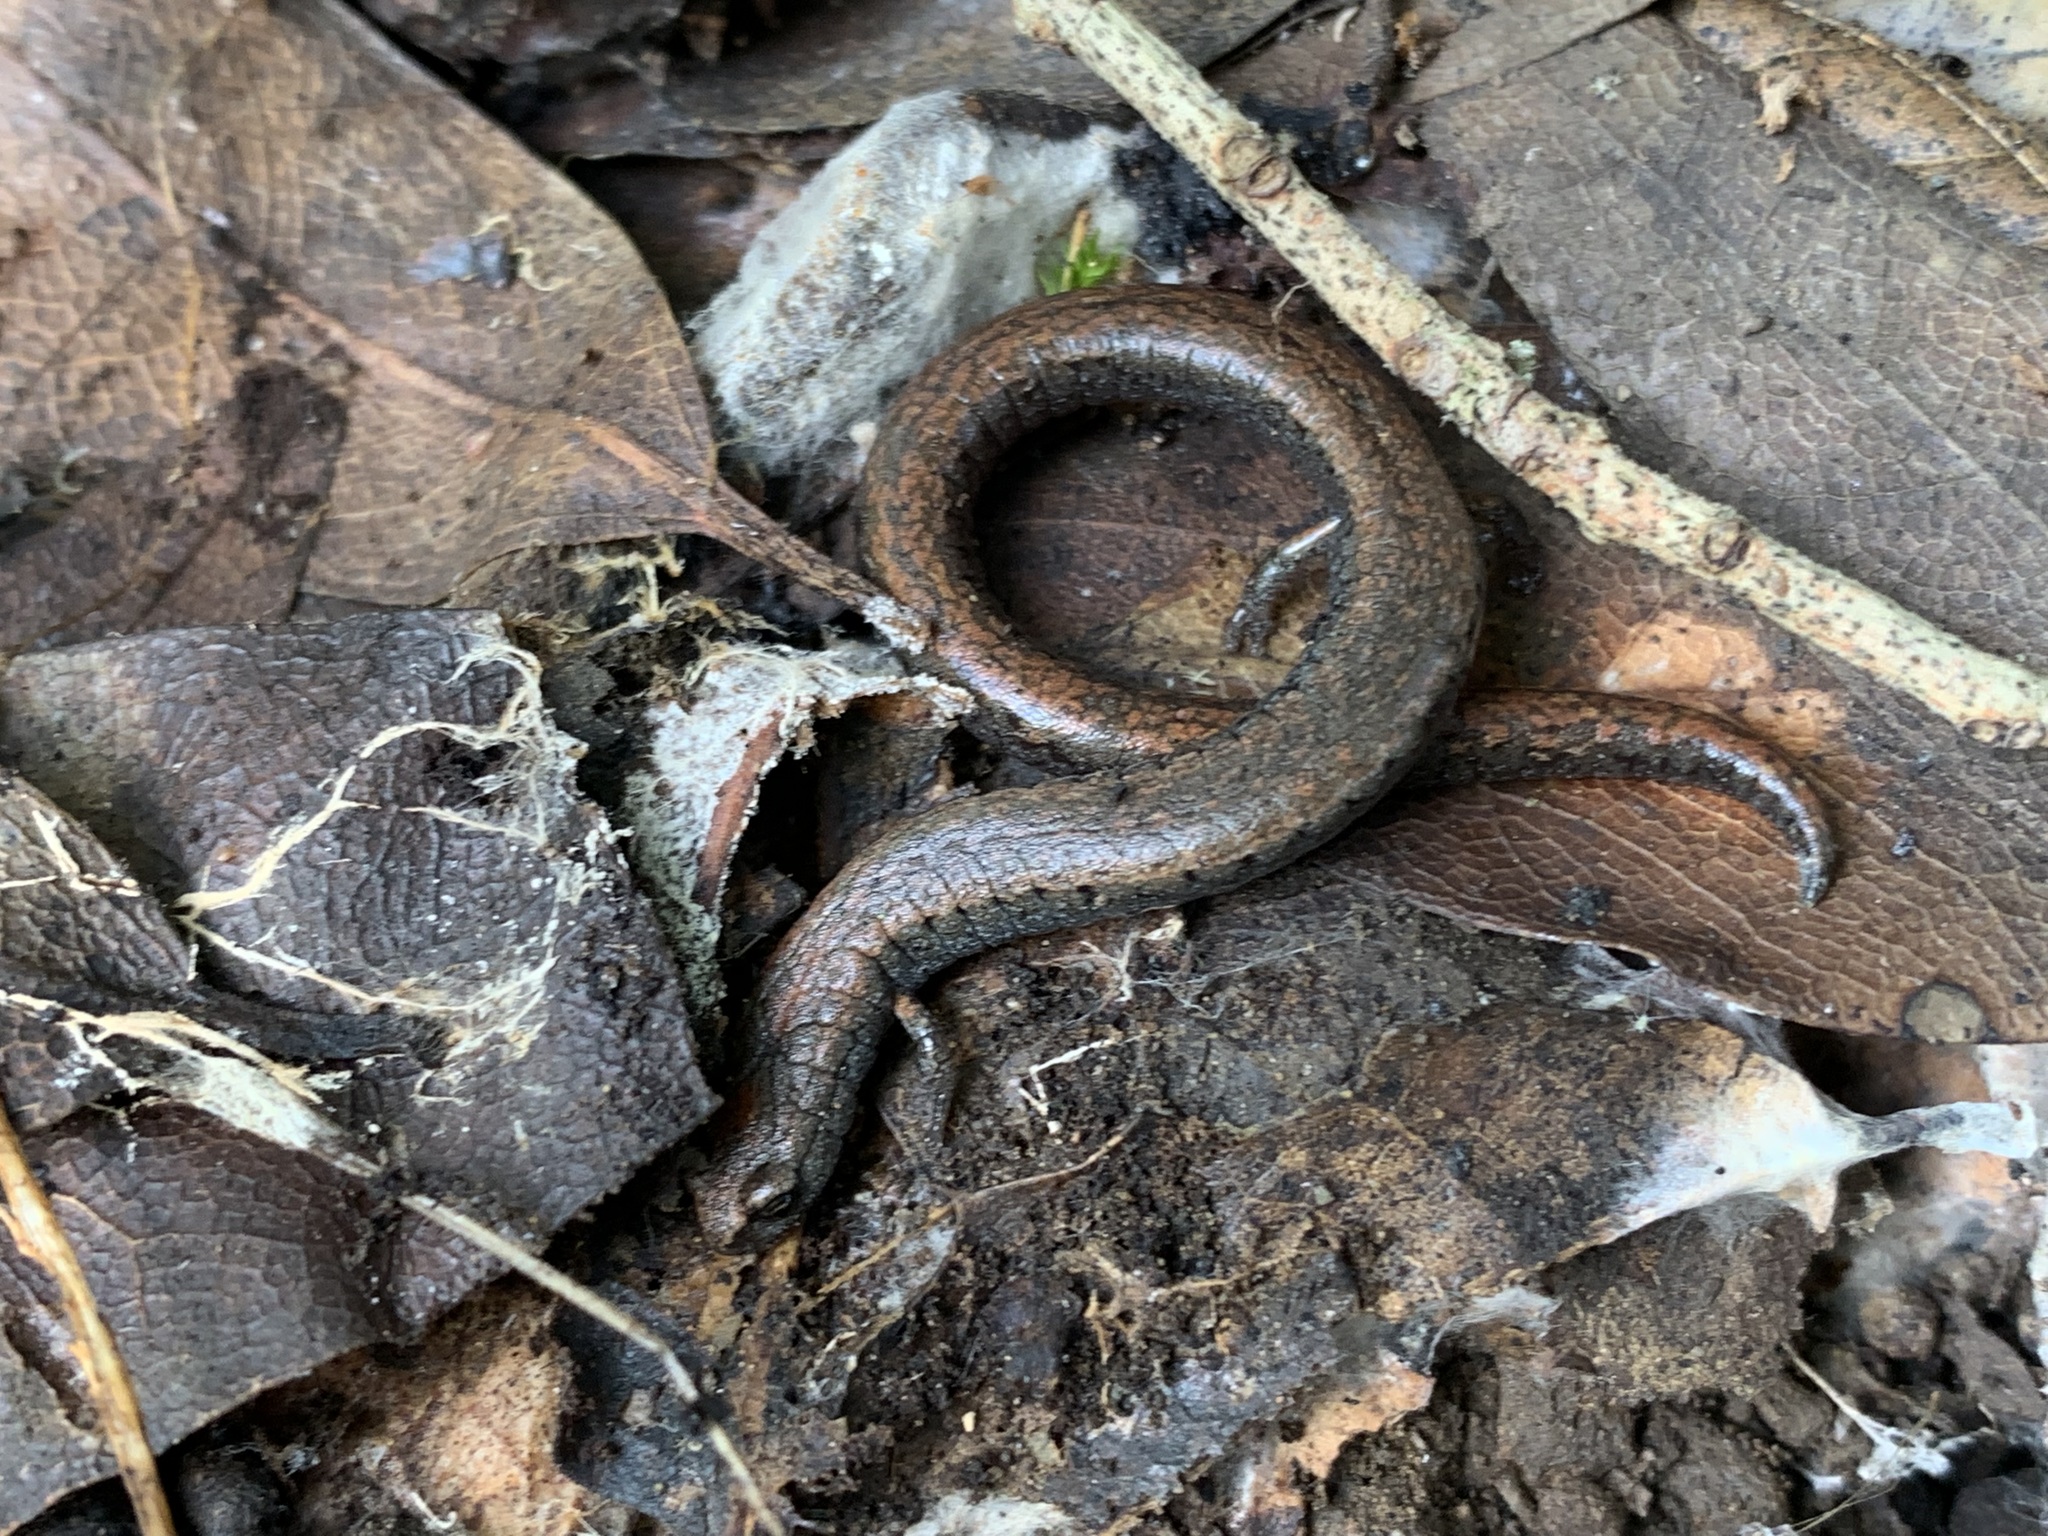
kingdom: Animalia
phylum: Chordata
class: Amphibia
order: Caudata
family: Plethodontidae
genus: Batrachoseps
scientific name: Batrachoseps attenuatus
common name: California slender salamander
